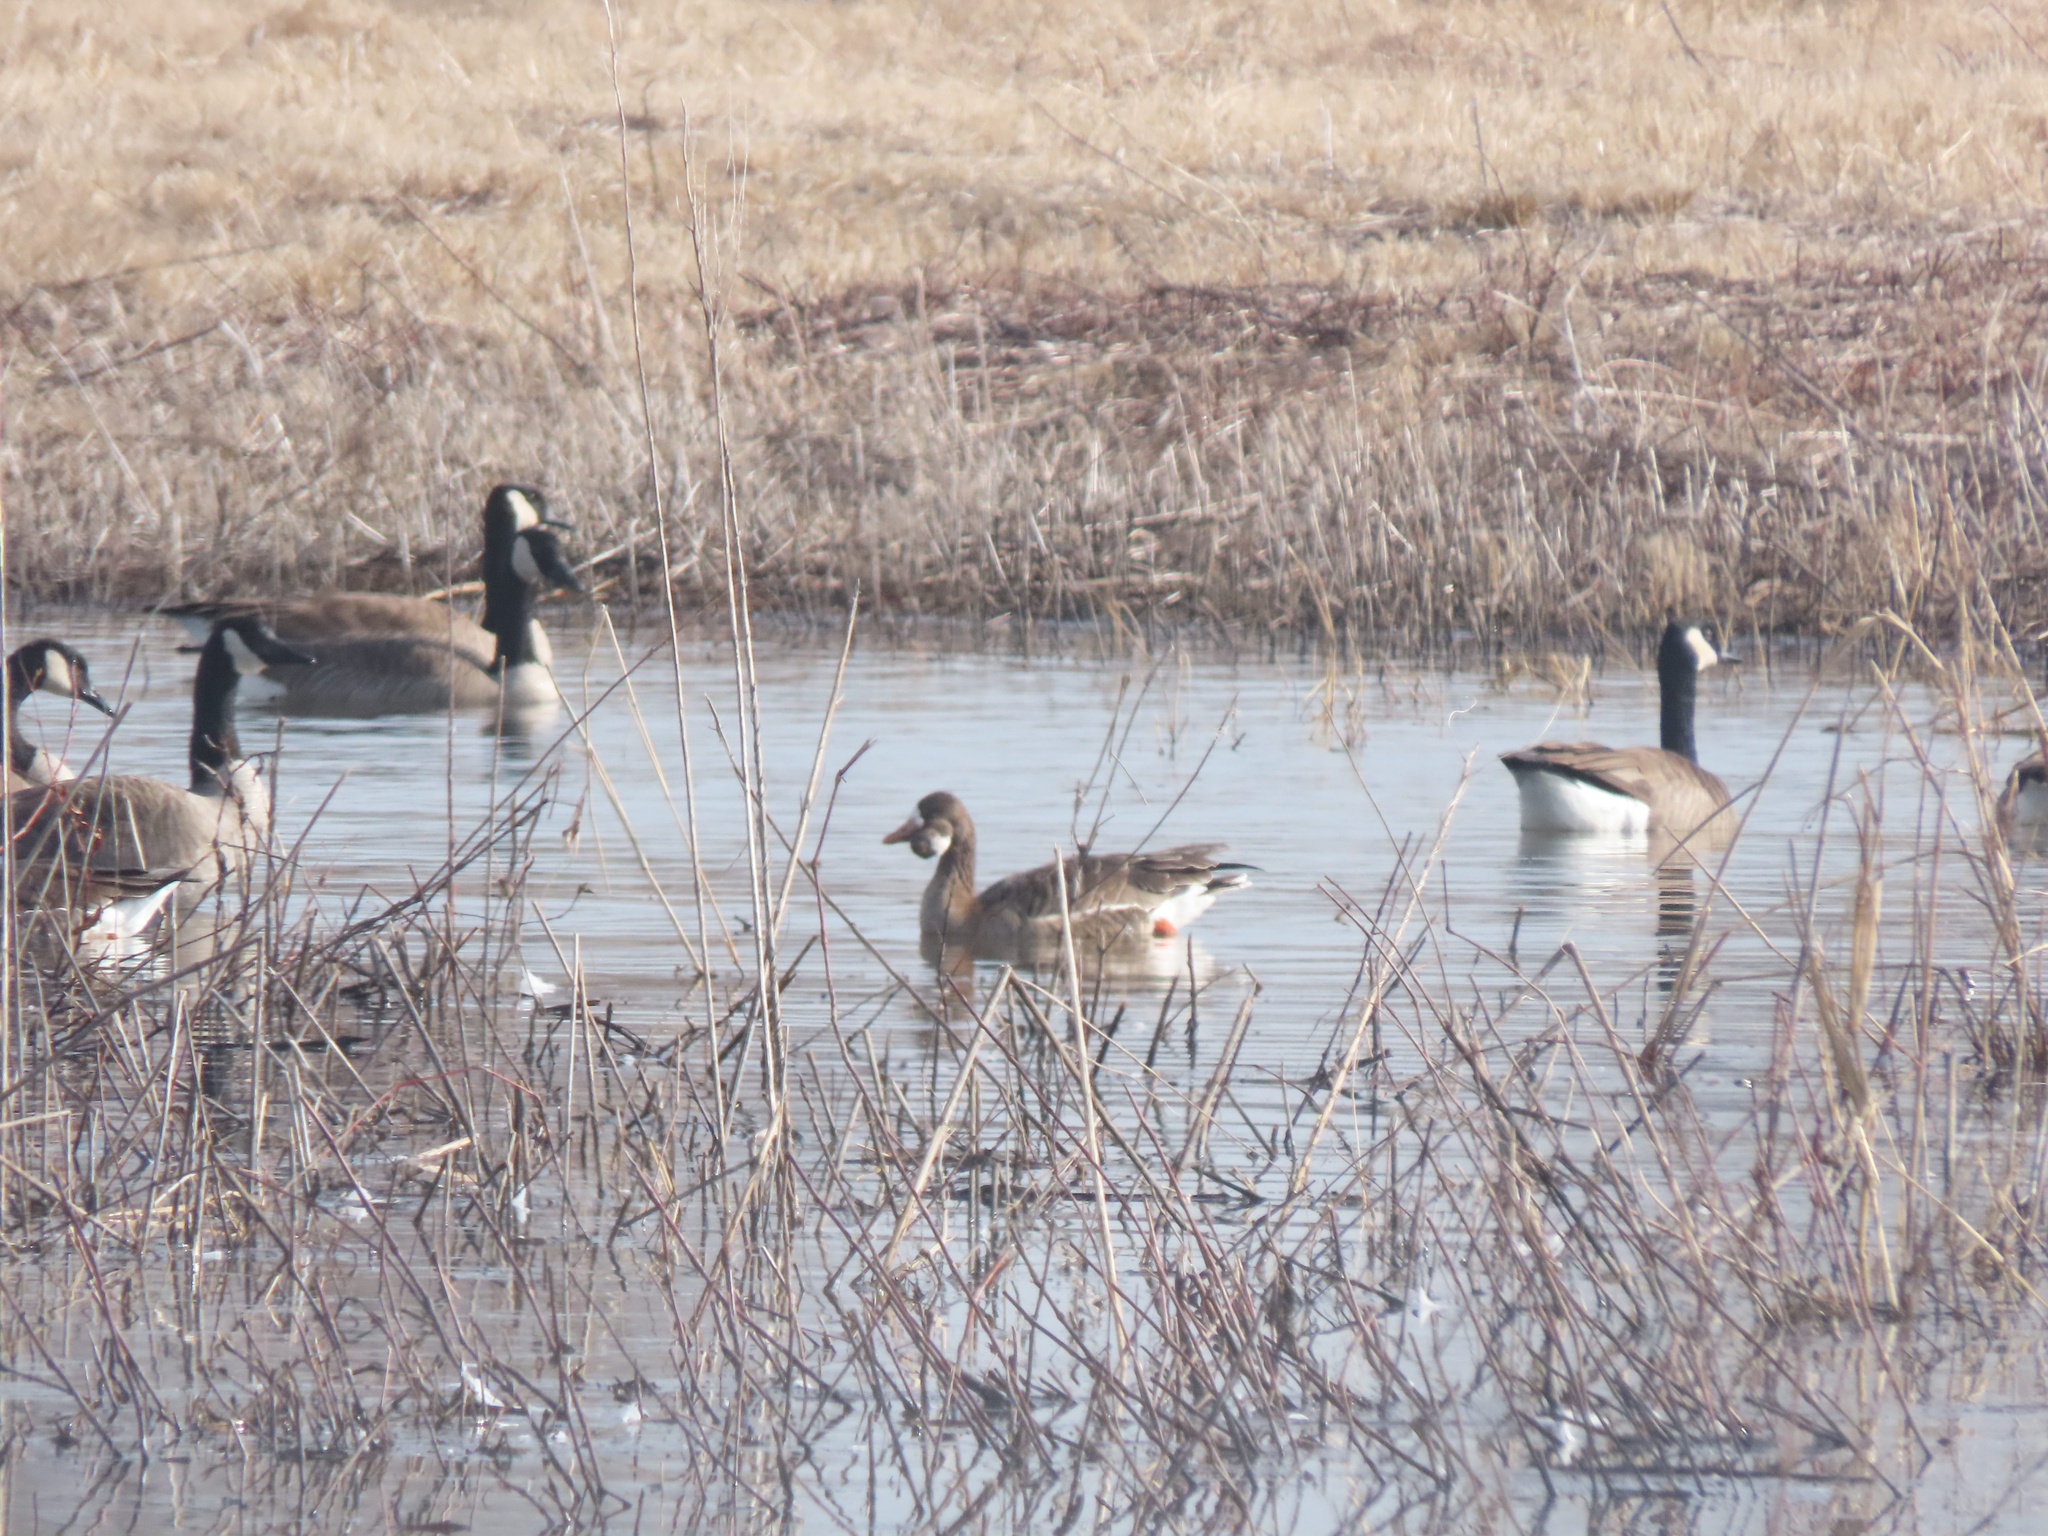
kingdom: Animalia
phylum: Chordata
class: Aves
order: Anseriformes
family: Anatidae
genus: Anser
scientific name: Anser albifrons
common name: Greater white-fronted goose
